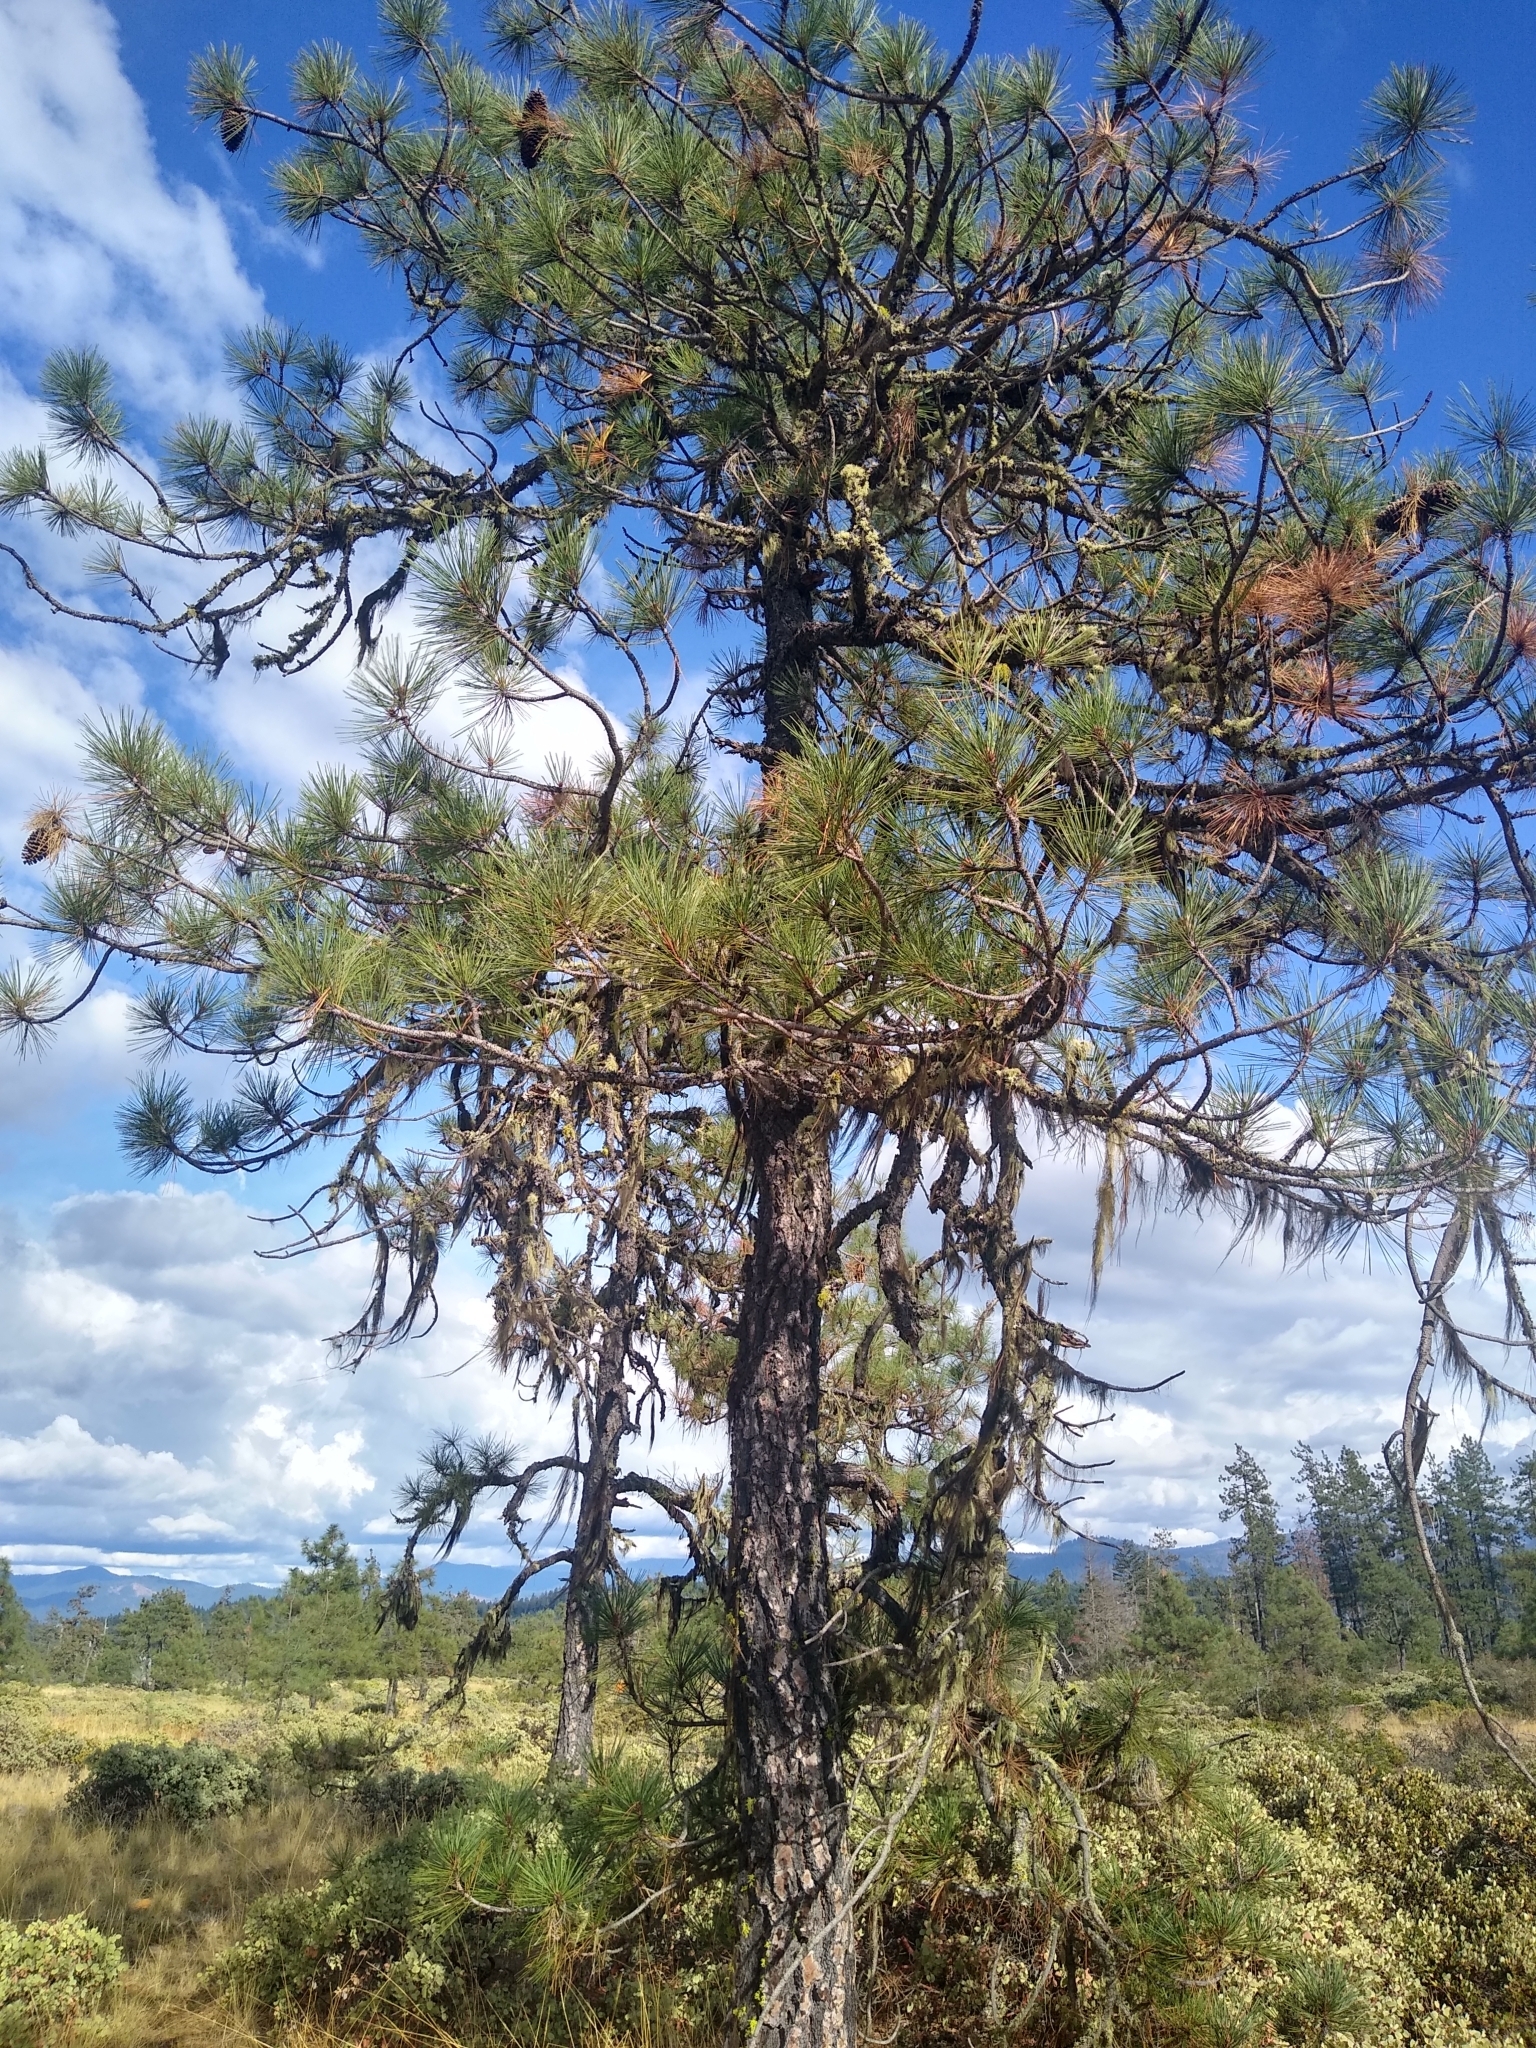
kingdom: Plantae
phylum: Tracheophyta
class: Pinopsida
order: Pinales
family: Pinaceae
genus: Pinus
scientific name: Pinus jeffreyi
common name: Jeffrey pine
